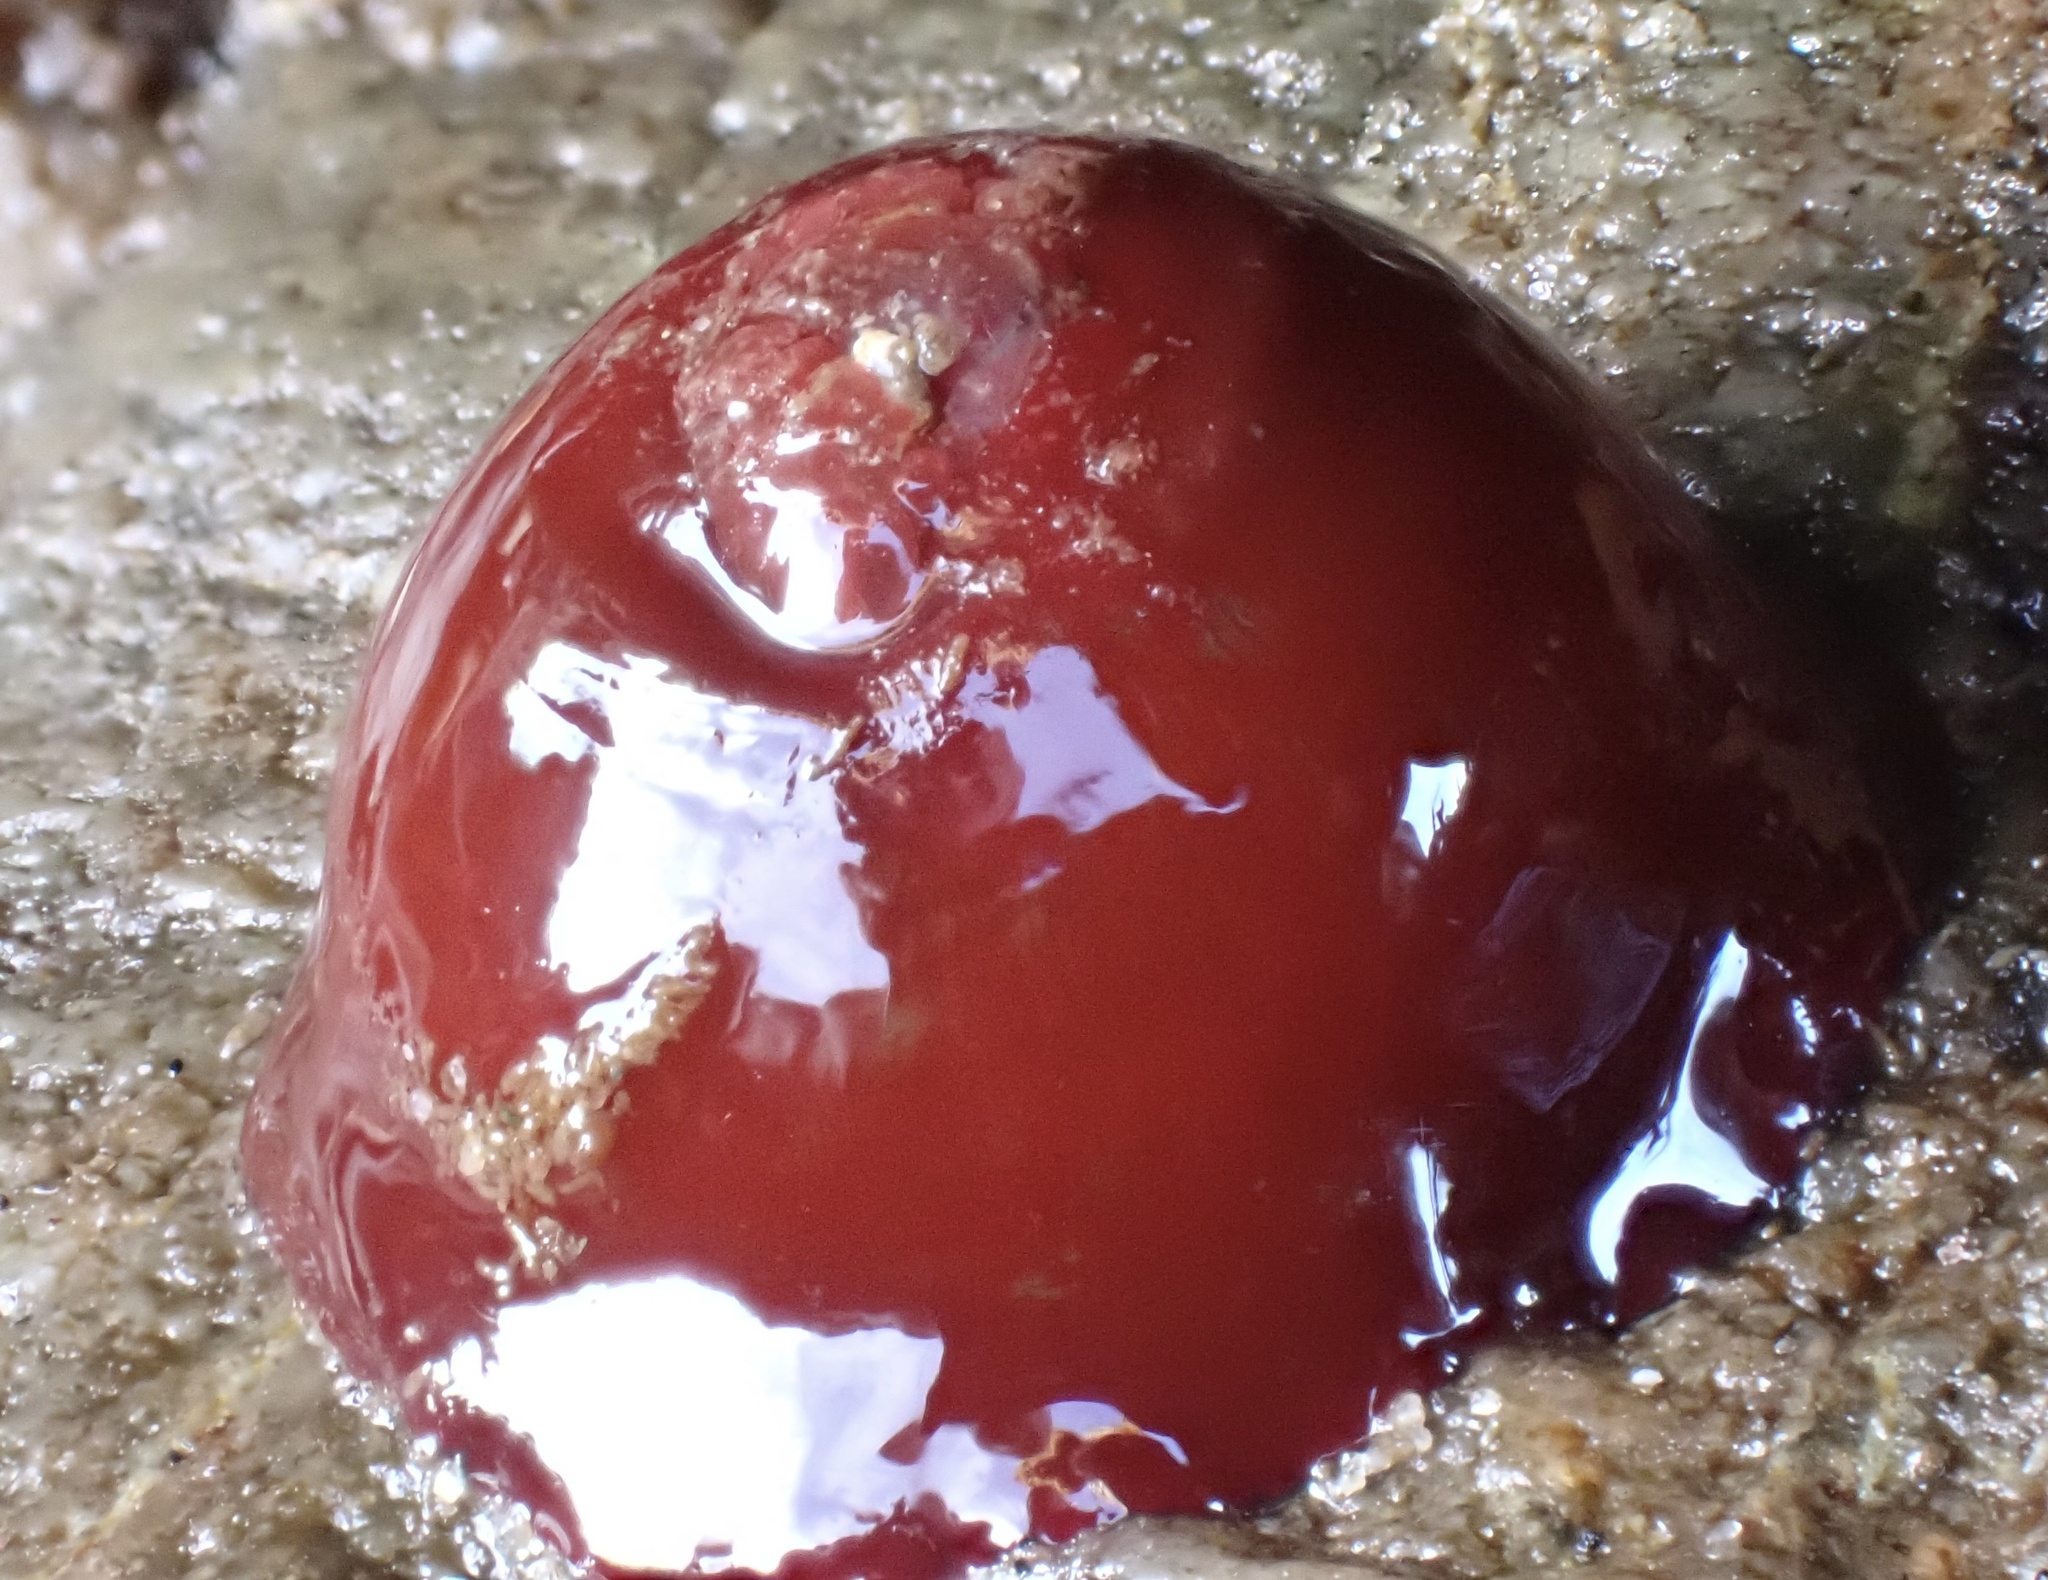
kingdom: Animalia
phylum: Cnidaria
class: Anthozoa
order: Actiniaria
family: Actiniidae
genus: Actinia
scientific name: Actinia equina
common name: Beadlet anemone
